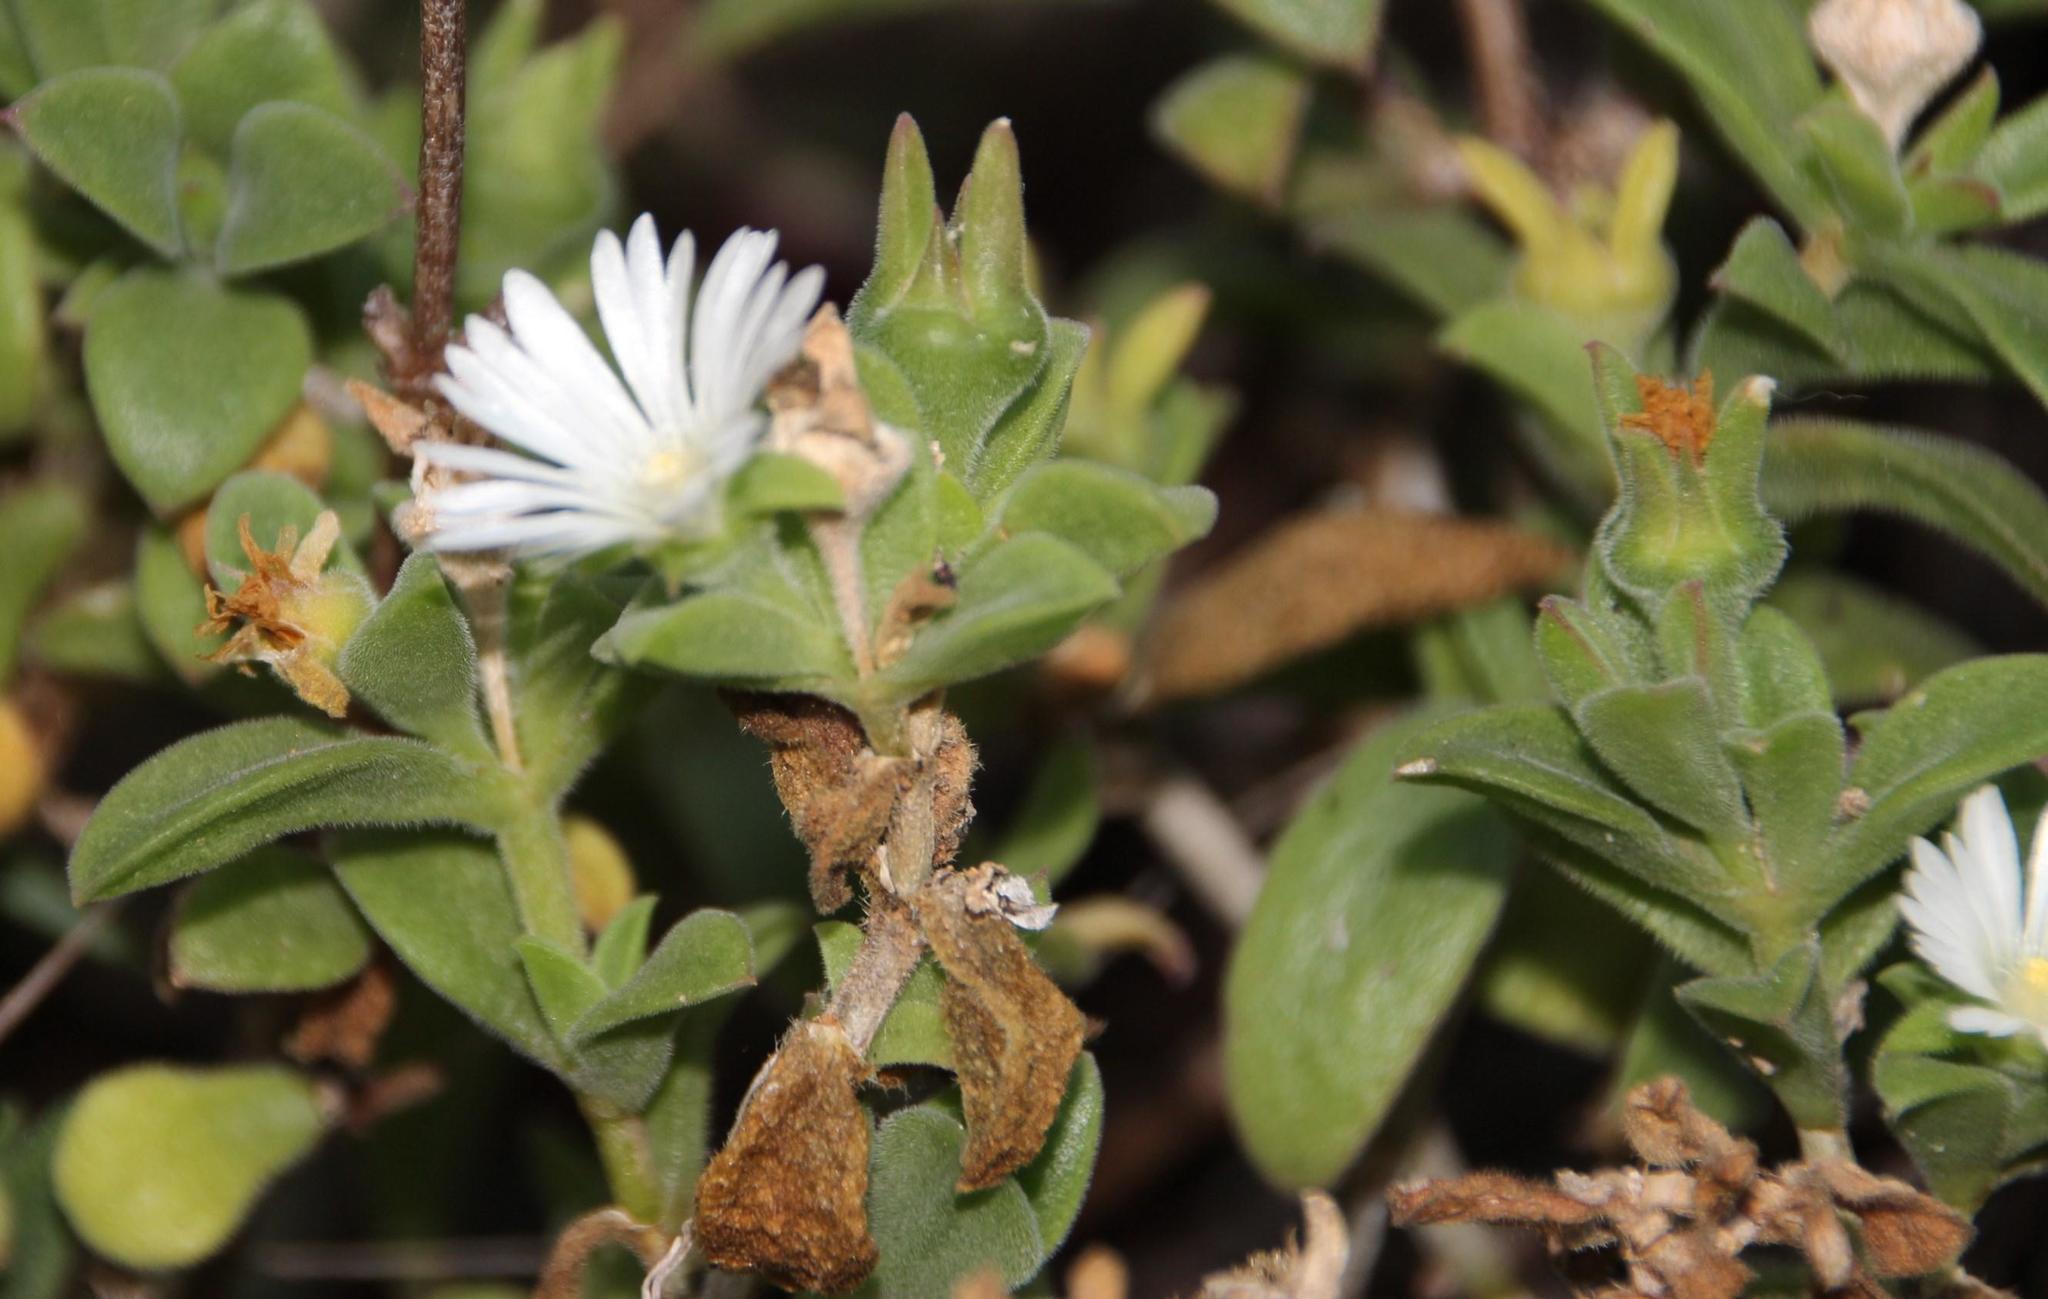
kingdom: Plantae
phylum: Tracheophyta
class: Magnoliopsida
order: Caryophyllales
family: Aizoaceae
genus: Delosperma
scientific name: Delosperma invalidum
